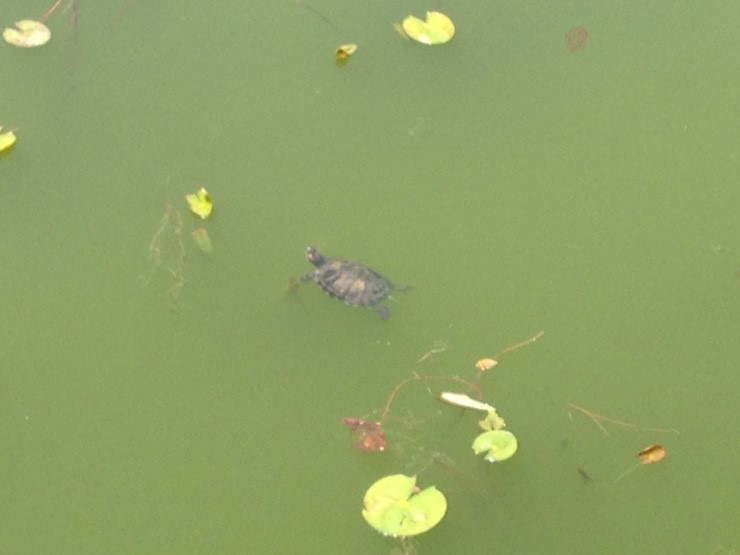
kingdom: Animalia
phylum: Chordata
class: Testudines
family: Emydidae
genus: Trachemys
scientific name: Trachemys scripta
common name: Slider
